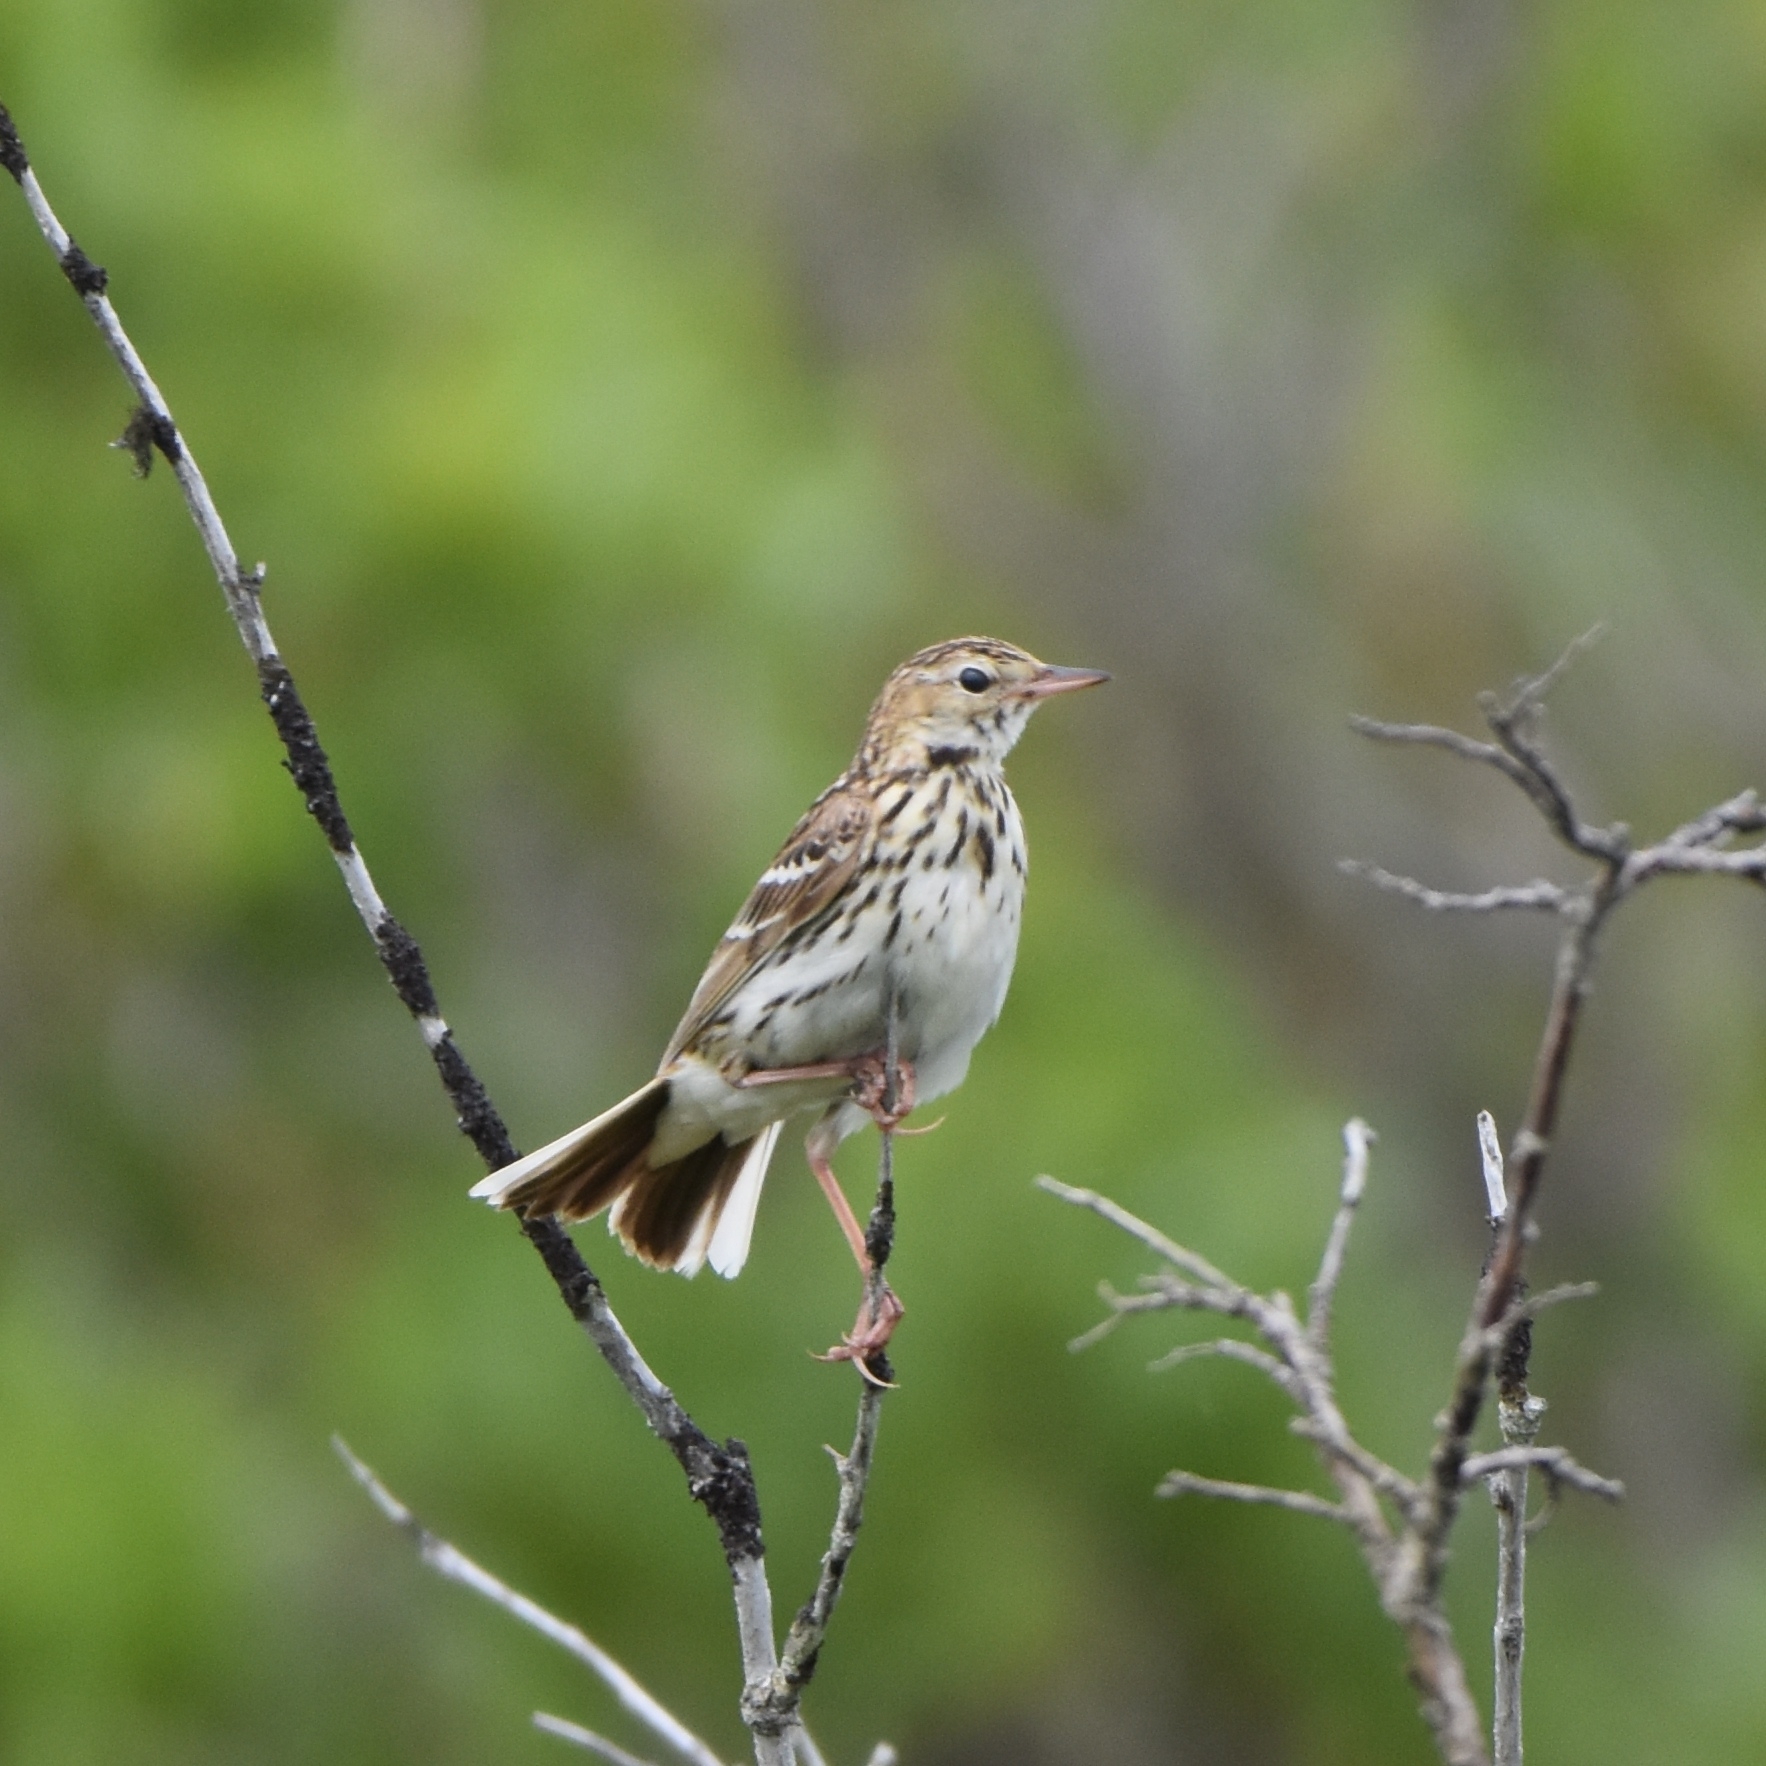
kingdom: Animalia
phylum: Chordata
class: Aves
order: Passeriformes
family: Motacillidae
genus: Anthus
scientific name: Anthus gustavi
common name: Pechora pipit
